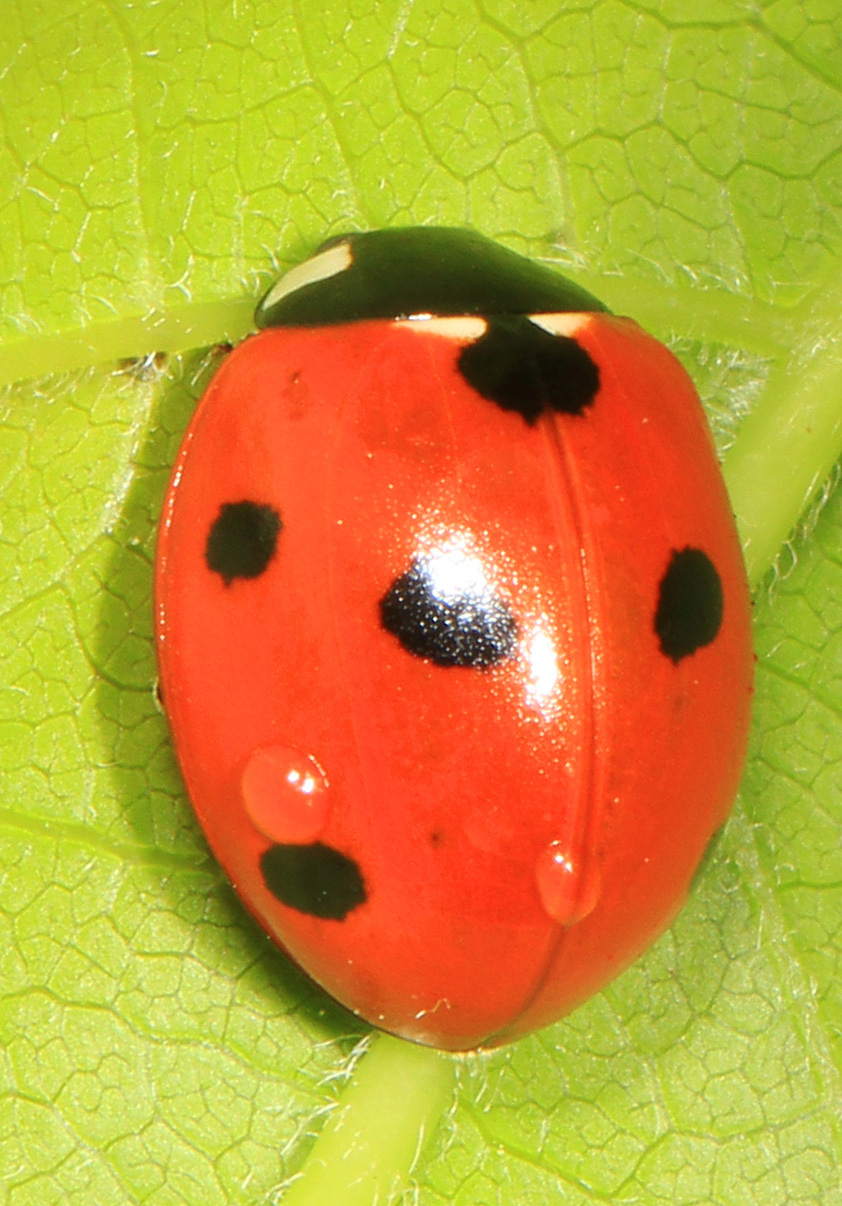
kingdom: Animalia
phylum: Arthropoda
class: Insecta
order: Coleoptera
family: Coccinellidae
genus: Coccinella
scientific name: Coccinella septempunctata
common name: Sevenspotted lady beetle
